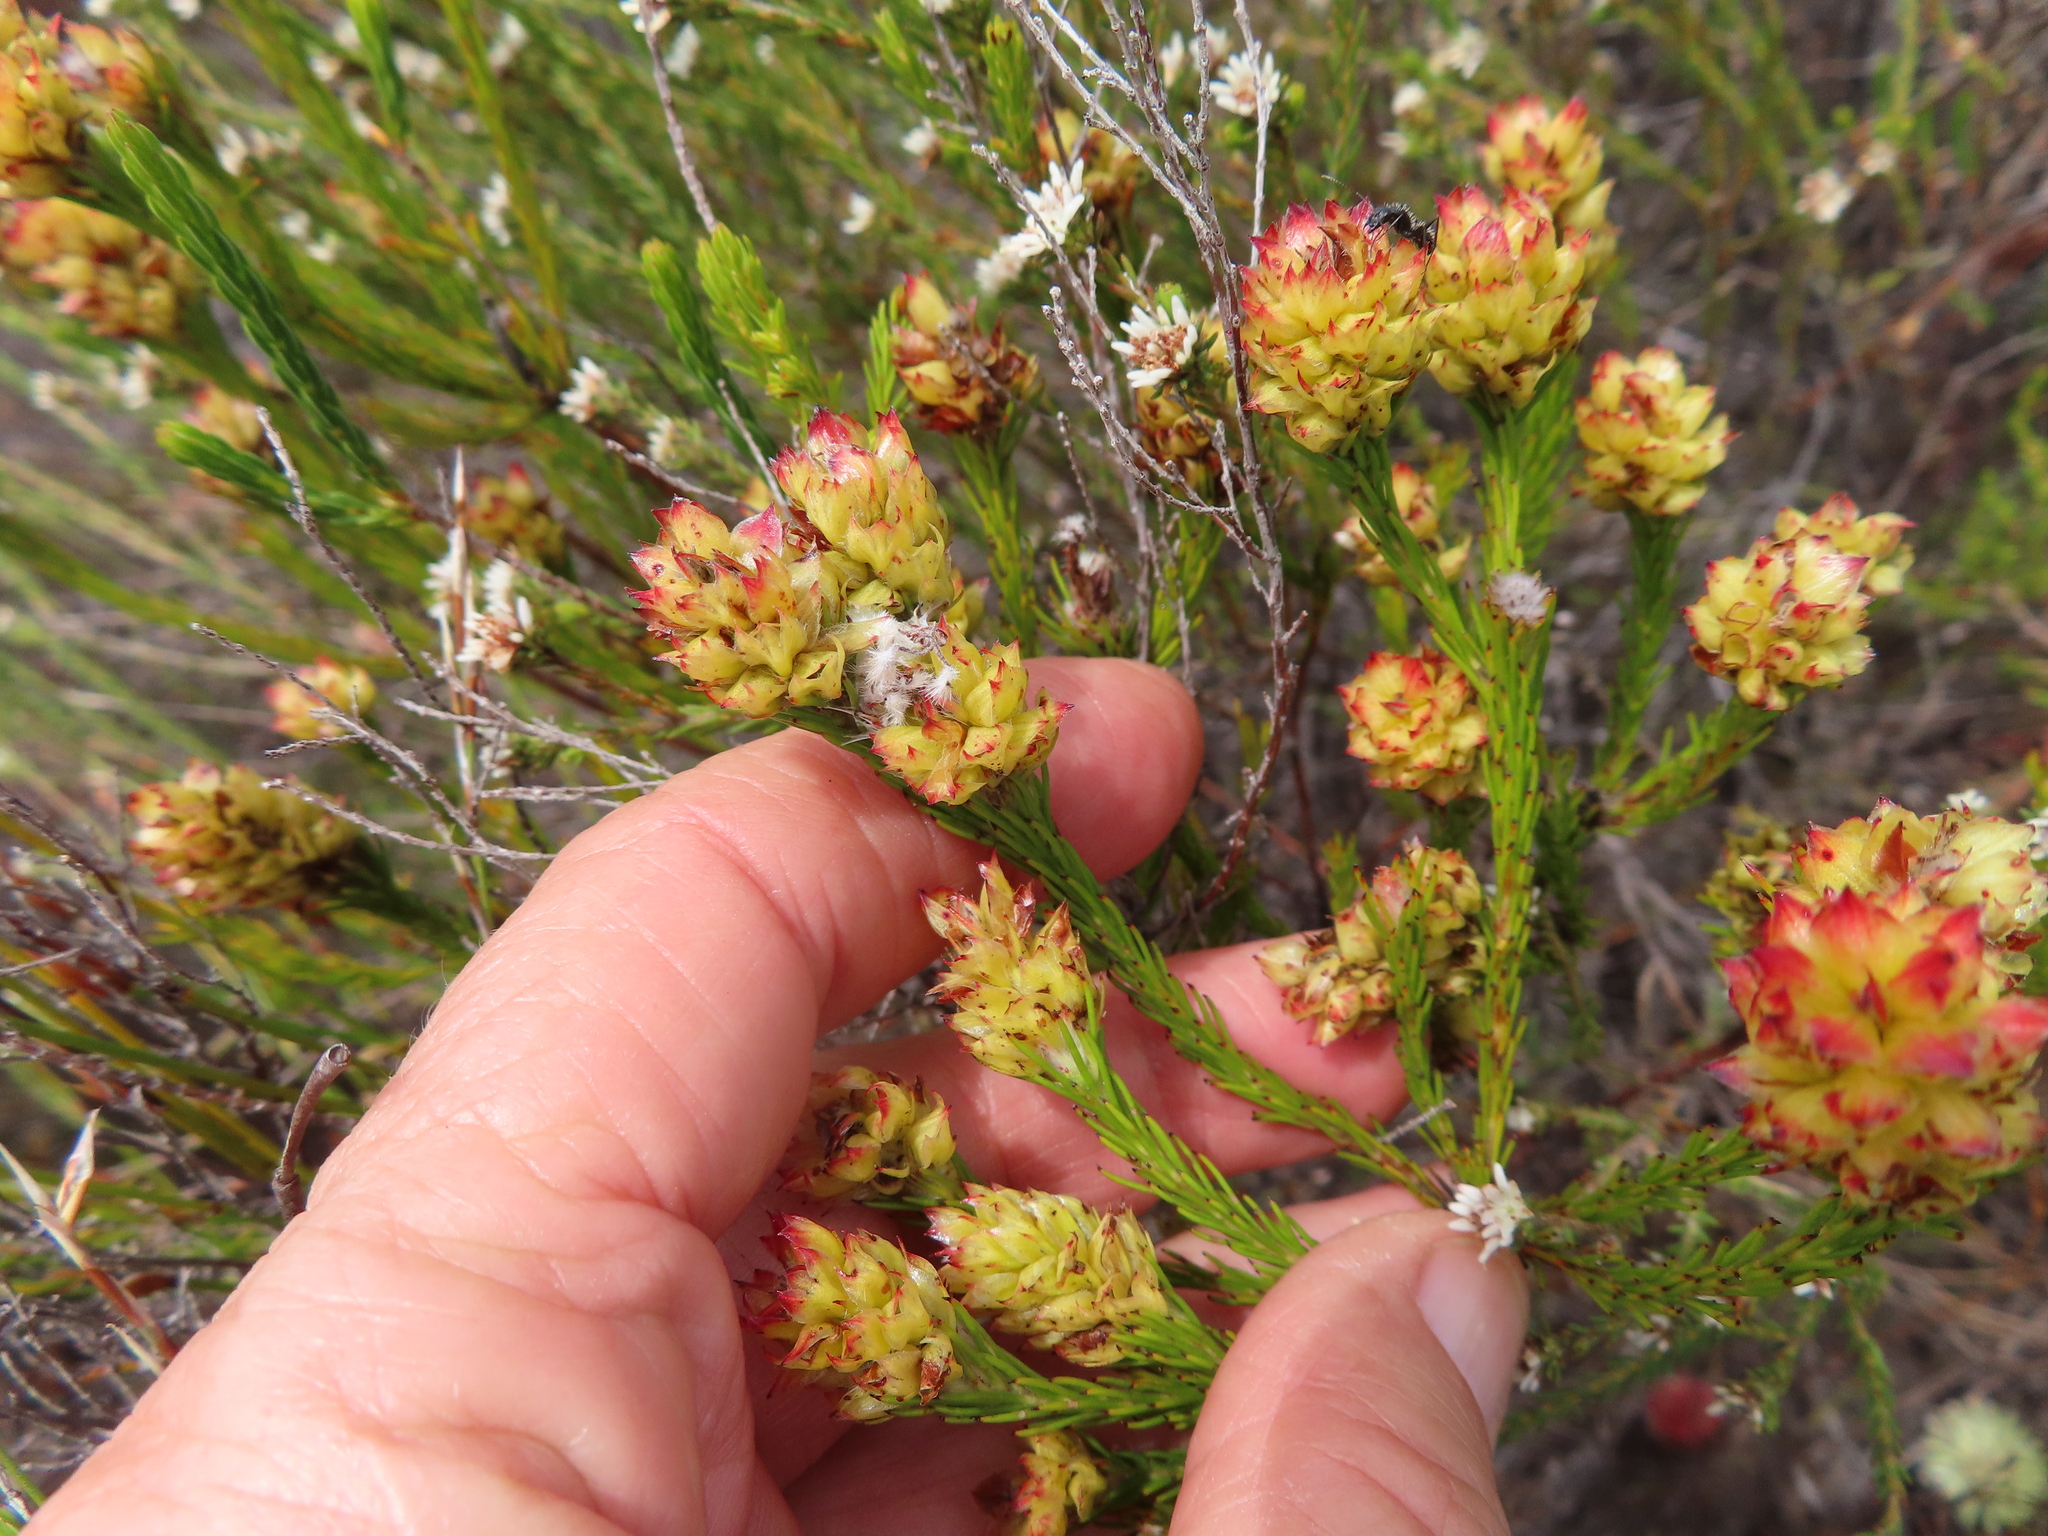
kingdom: Plantae
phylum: Tracheophyta
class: Magnoliopsida
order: Proteales
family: Proteaceae
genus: Spatalla
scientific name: Spatalla squamata
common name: Silky spoon
